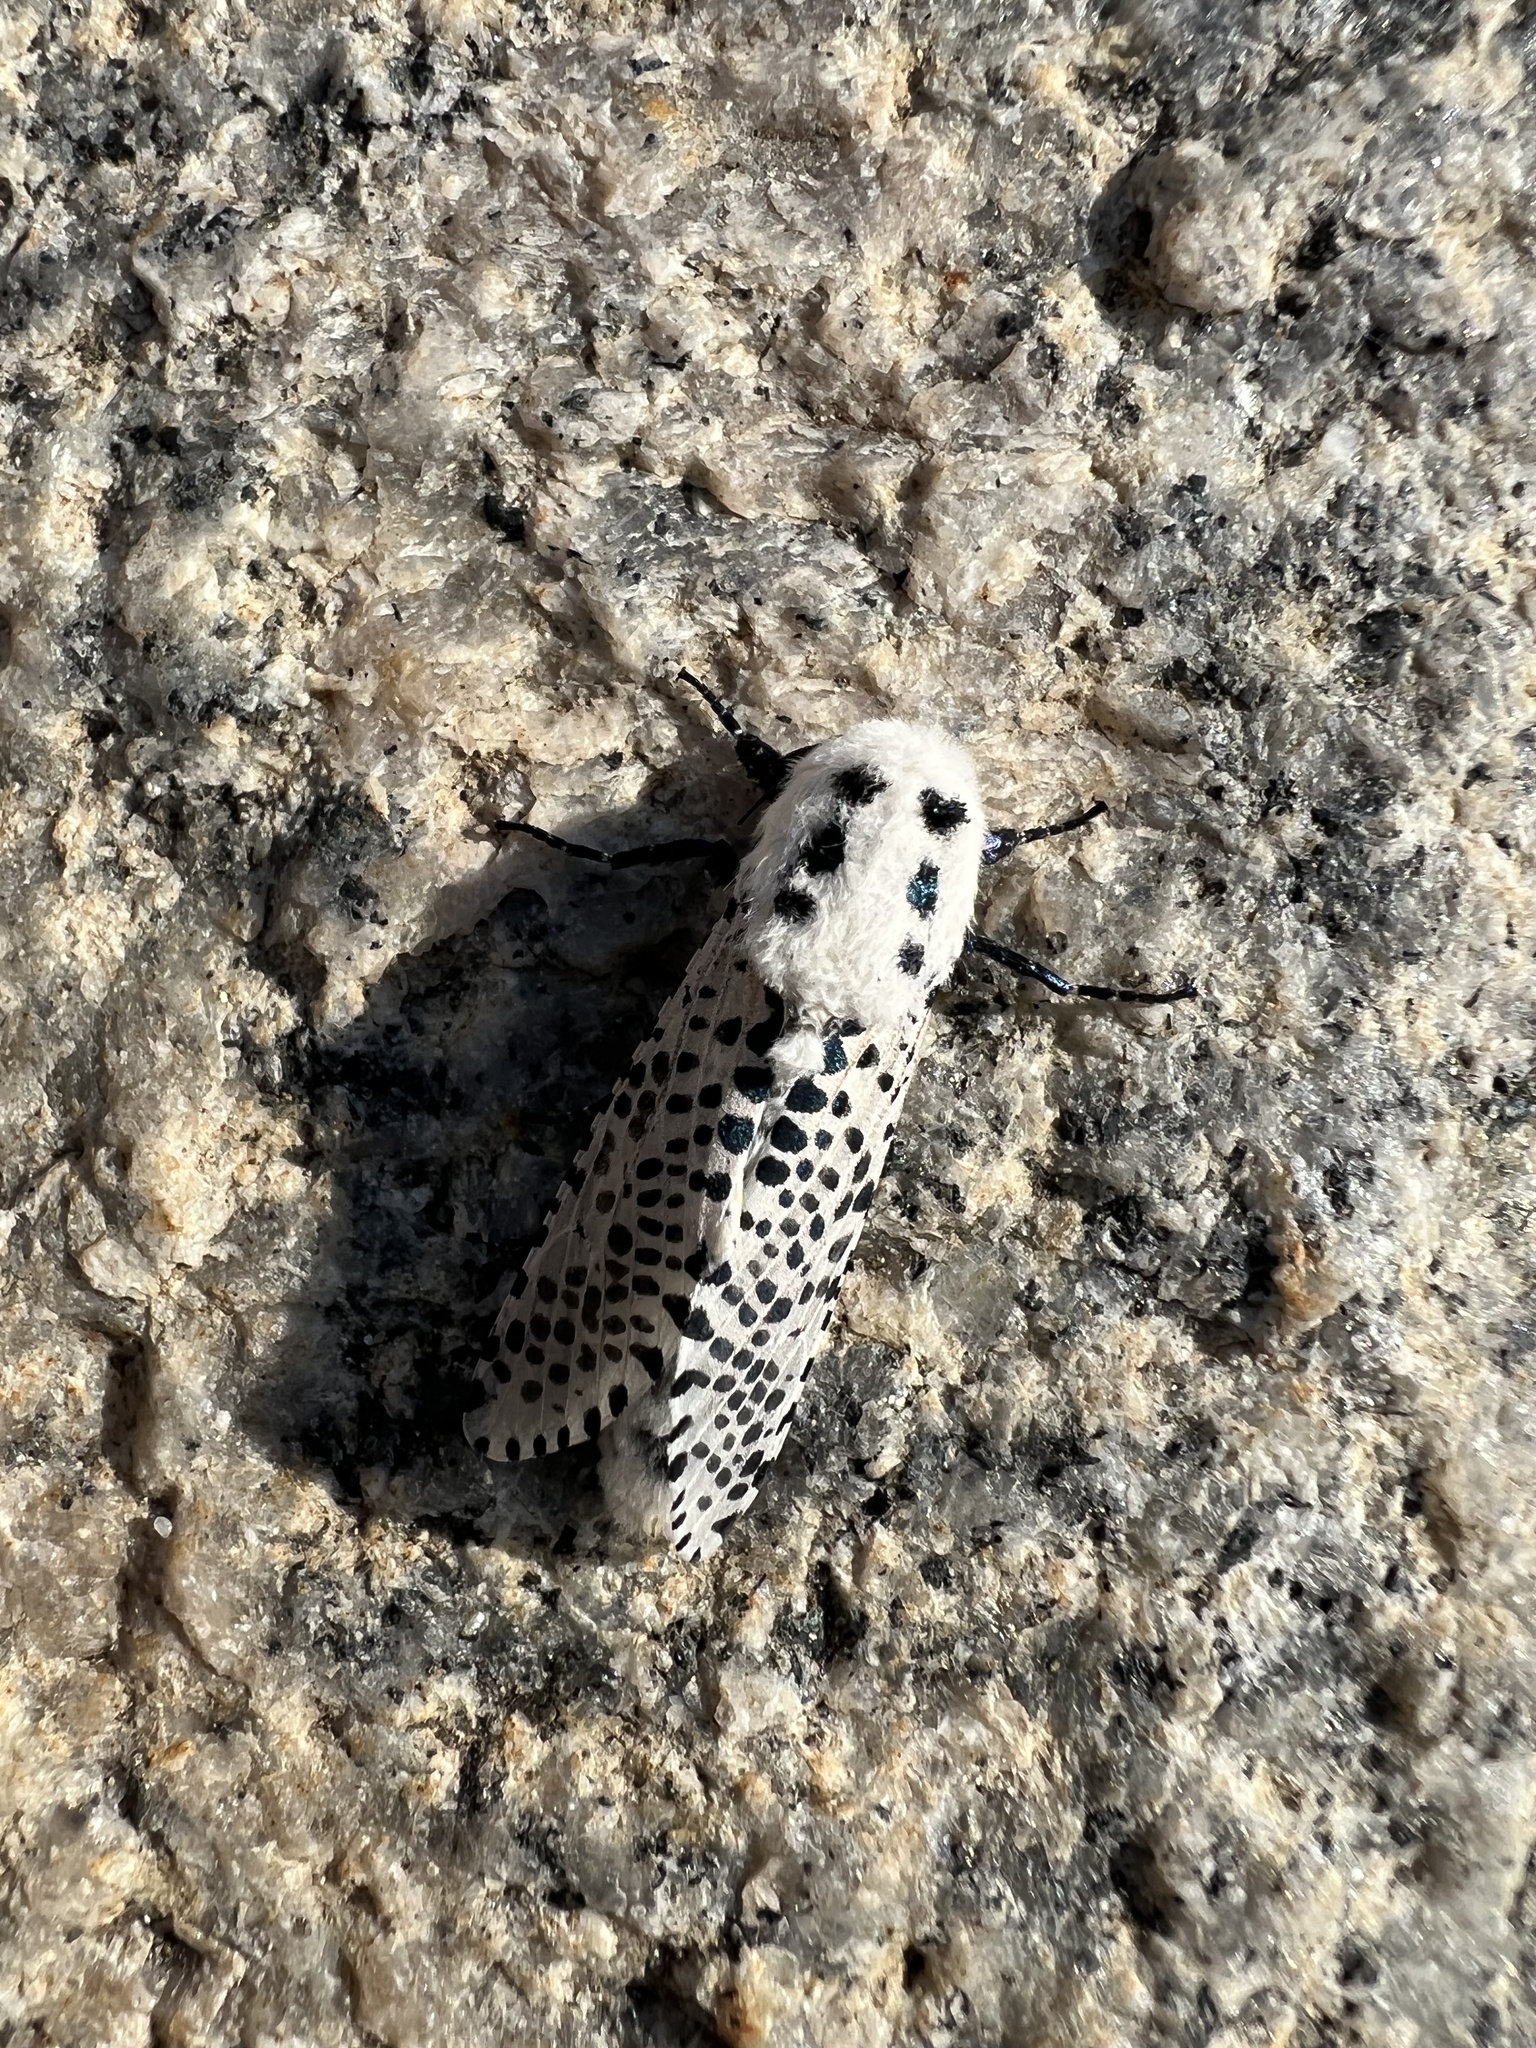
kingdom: Animalia
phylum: Arthropoda
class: Insecta
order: Lepidoptera
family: Cossidae
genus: Zeuzera
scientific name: Zeuzera pyrina
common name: Leopard moth
